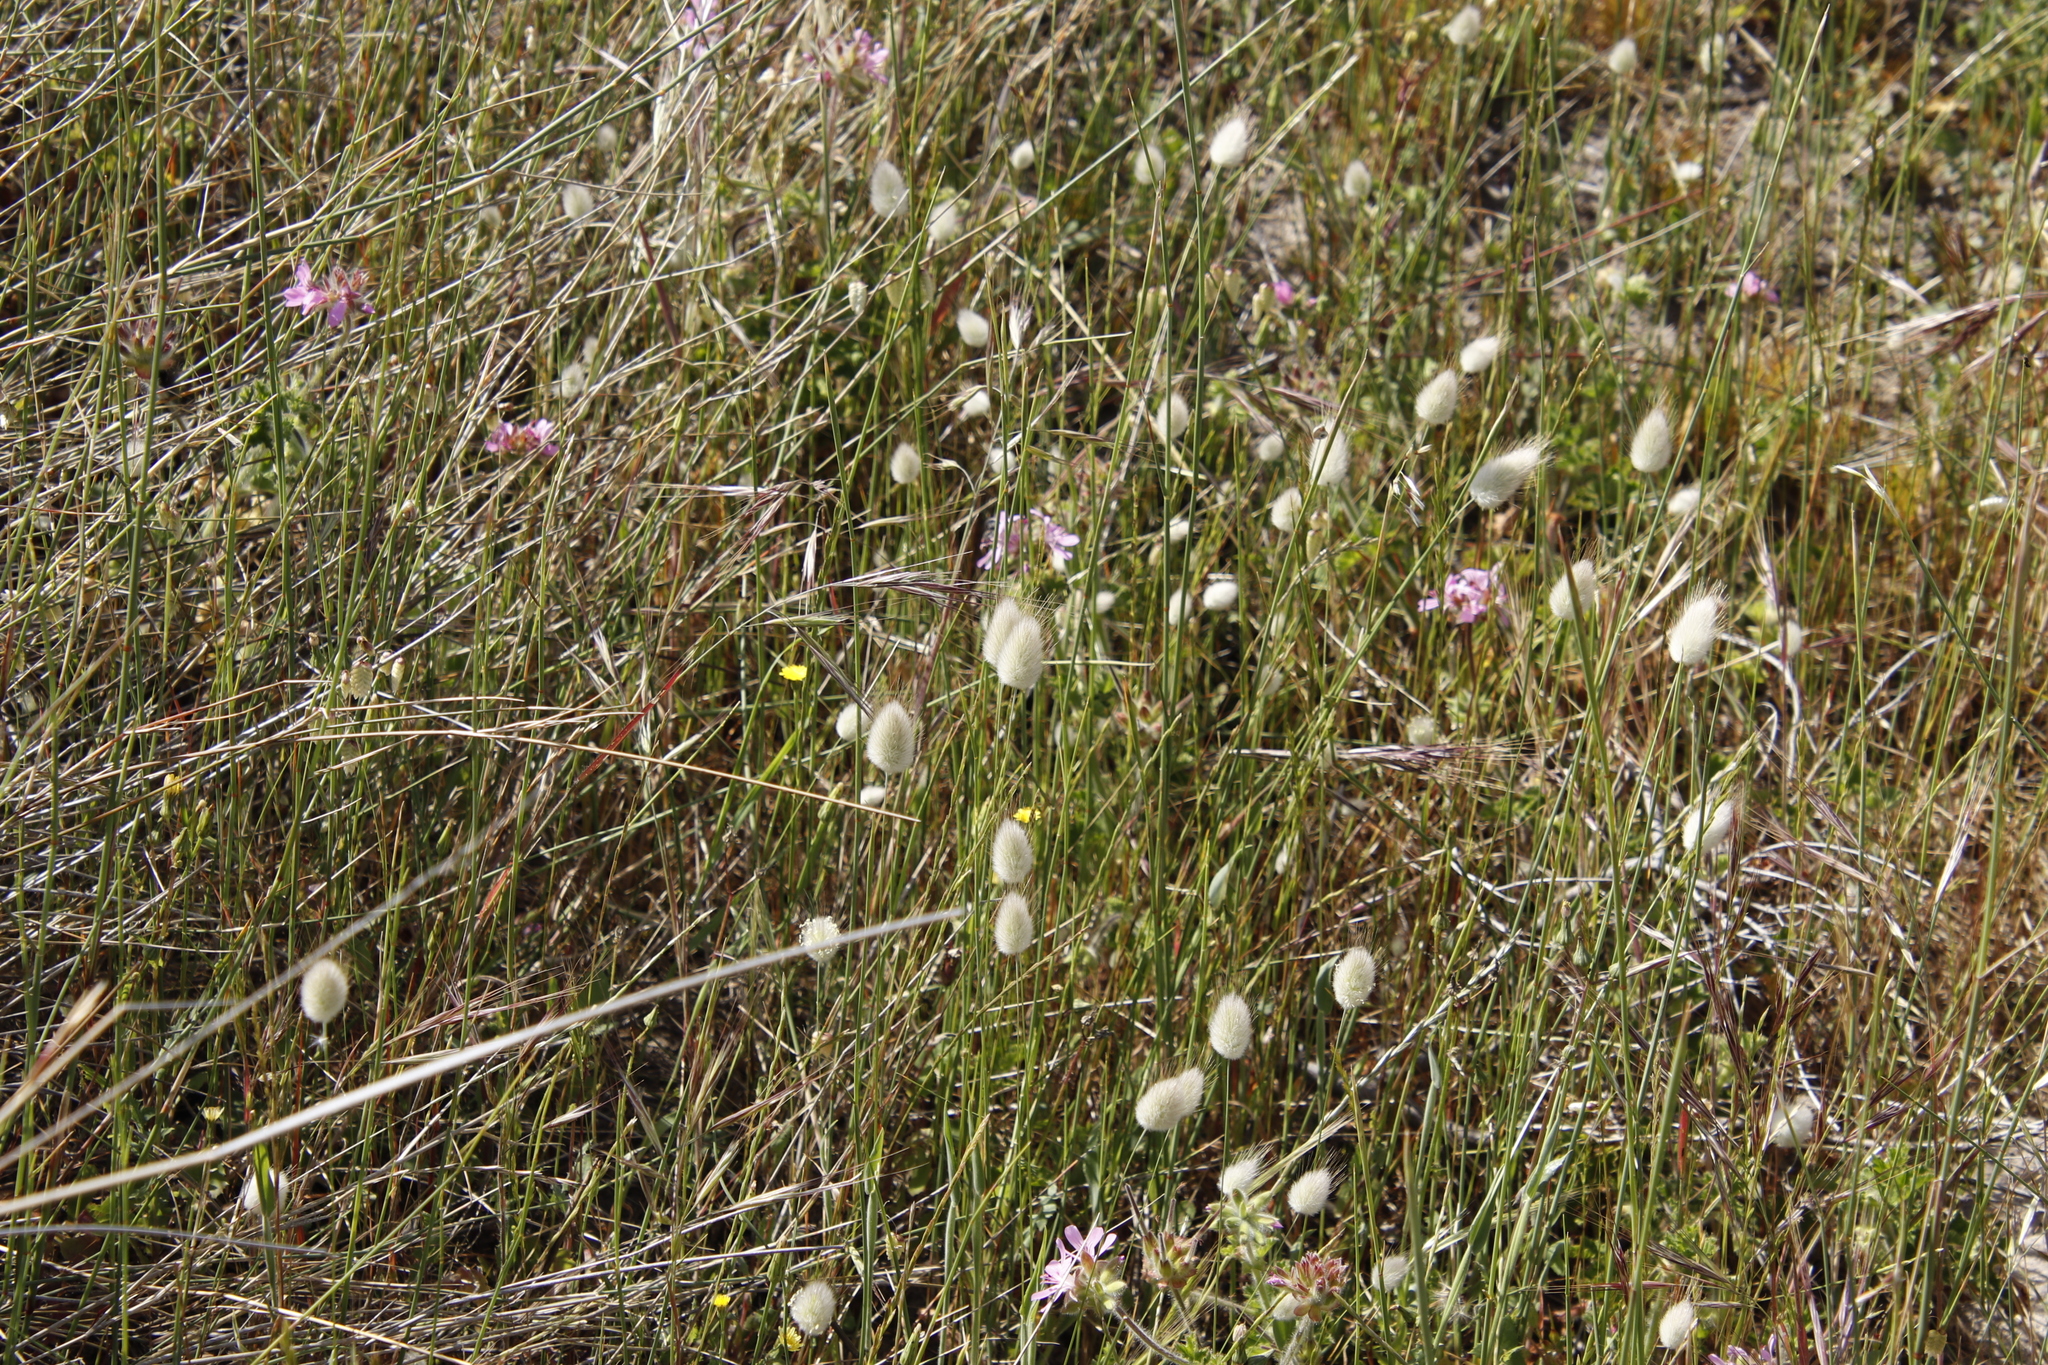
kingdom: Plantae
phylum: Tracheophyta
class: Liliopsida
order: Poales
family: Poaceae
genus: Lagurus
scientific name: Lagurus ovatus
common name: Hare's-tail
